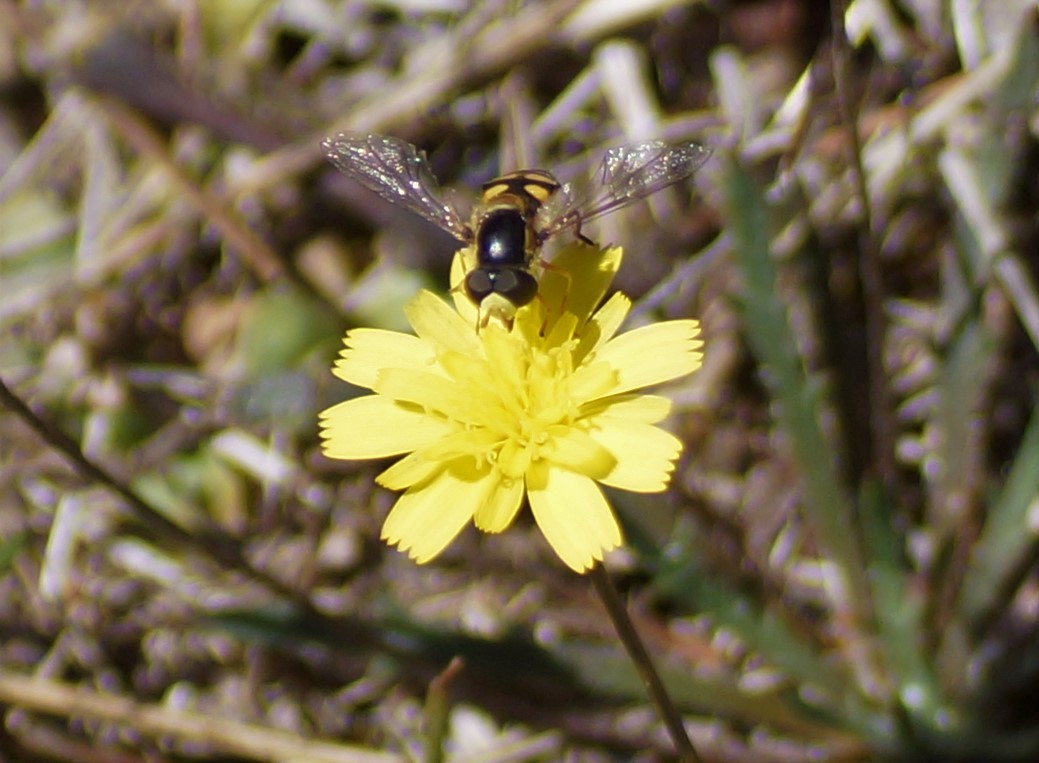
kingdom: Animalia
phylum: Arthropoda
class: Insecta
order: Diptera
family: Syrphidae
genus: Simosyrphus
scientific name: Simosyrphus grandicornis
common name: Hoverfly
